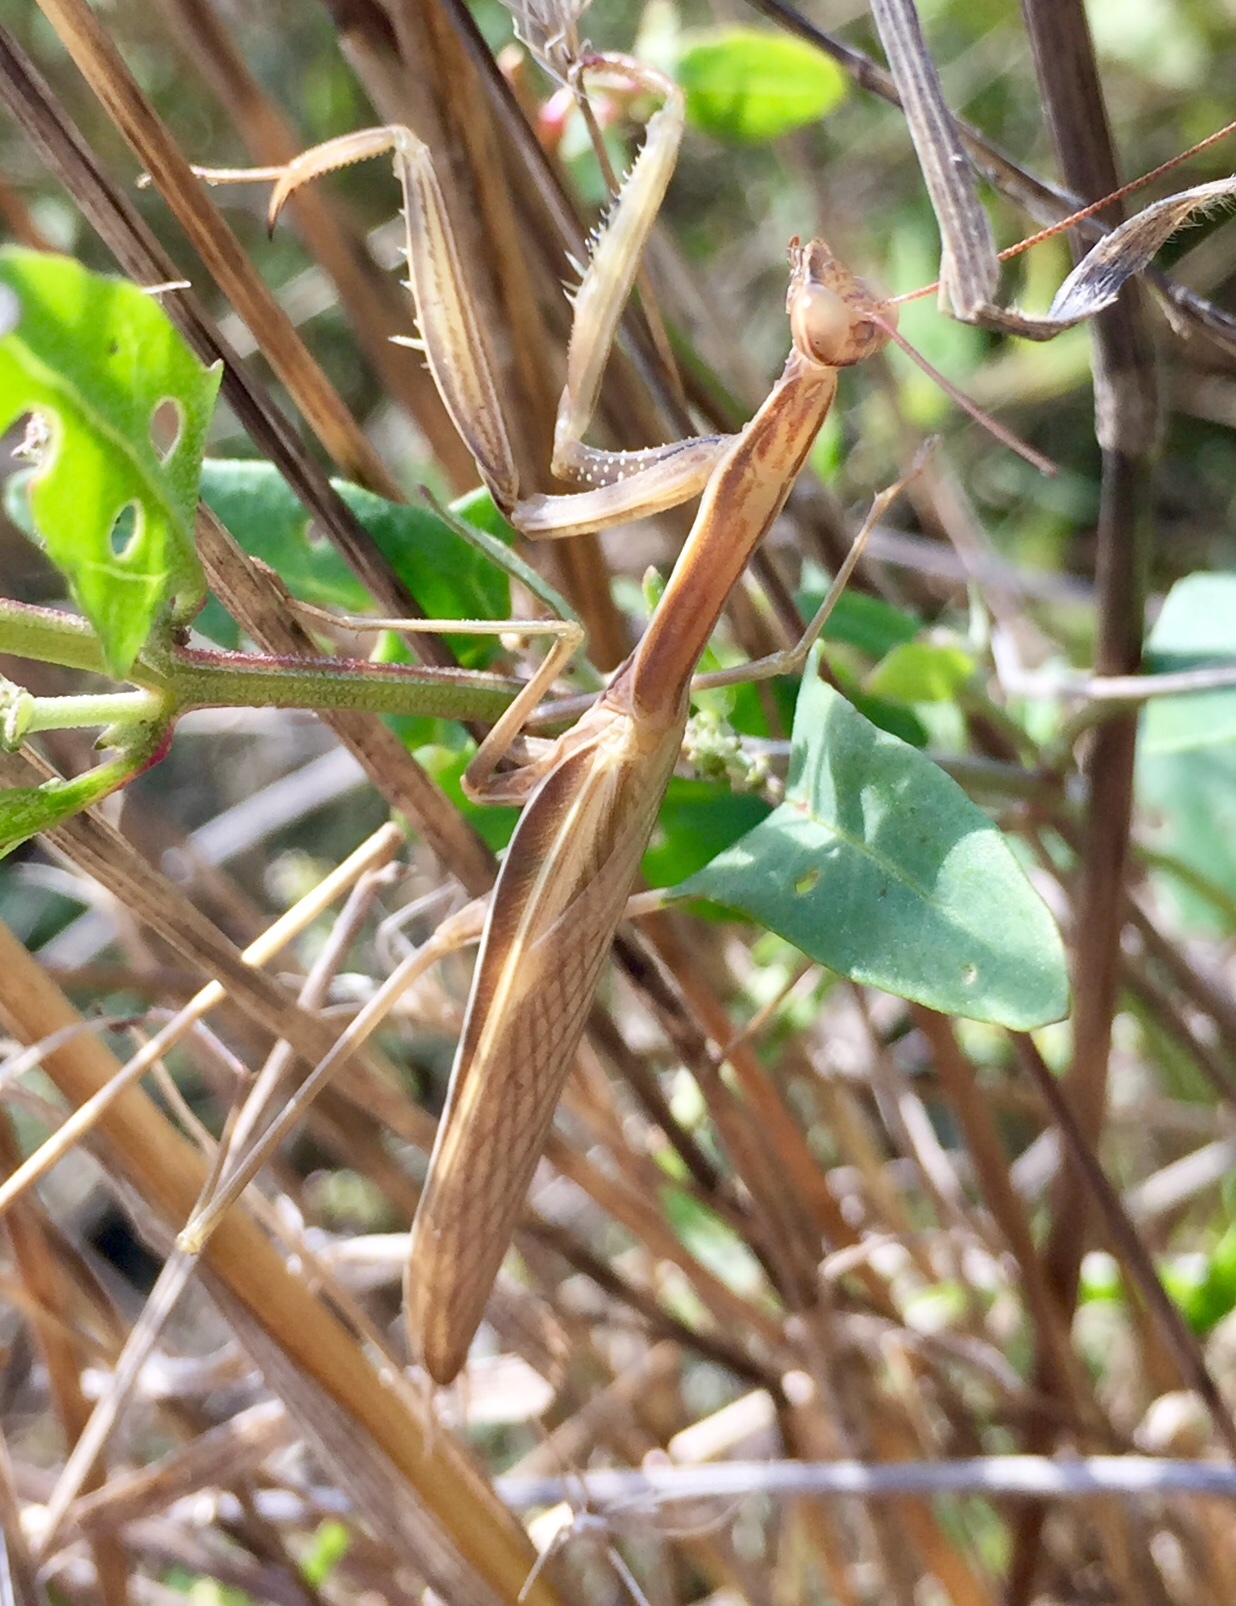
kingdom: Animalia
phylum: Arthropoda
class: Insecta
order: Mantodea
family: Mantidae
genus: Mantis
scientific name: Mantis religiosa
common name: Praying mantis
